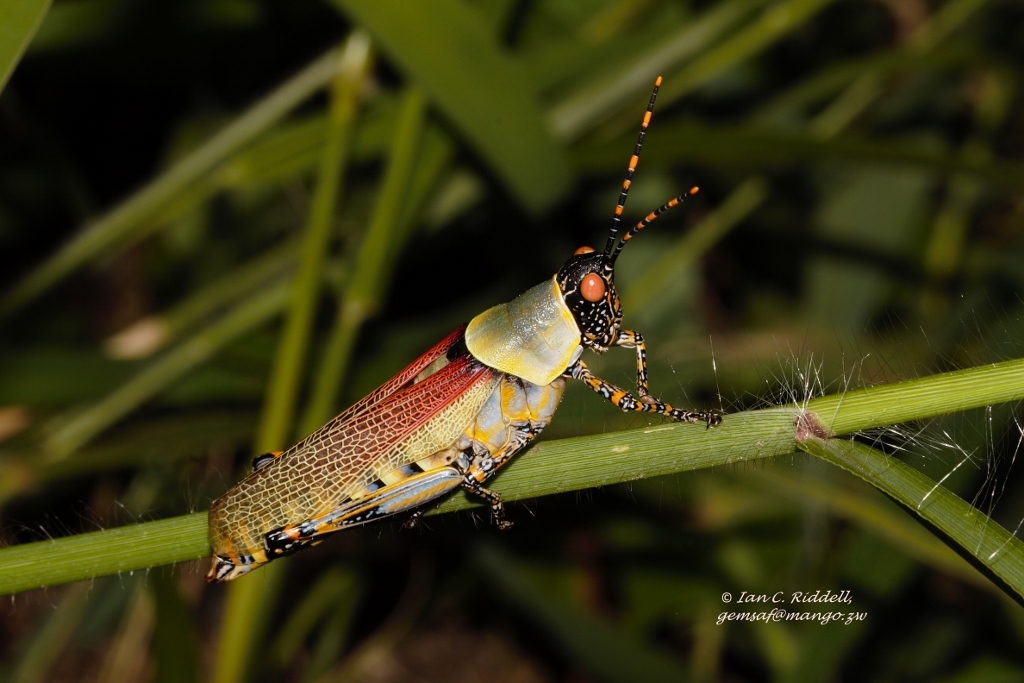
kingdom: Animalia
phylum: Arthropoda
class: Insecta
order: Orthoptera
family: Pyrgomorphidae
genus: Zonocerus
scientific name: Zonocerus elegans
